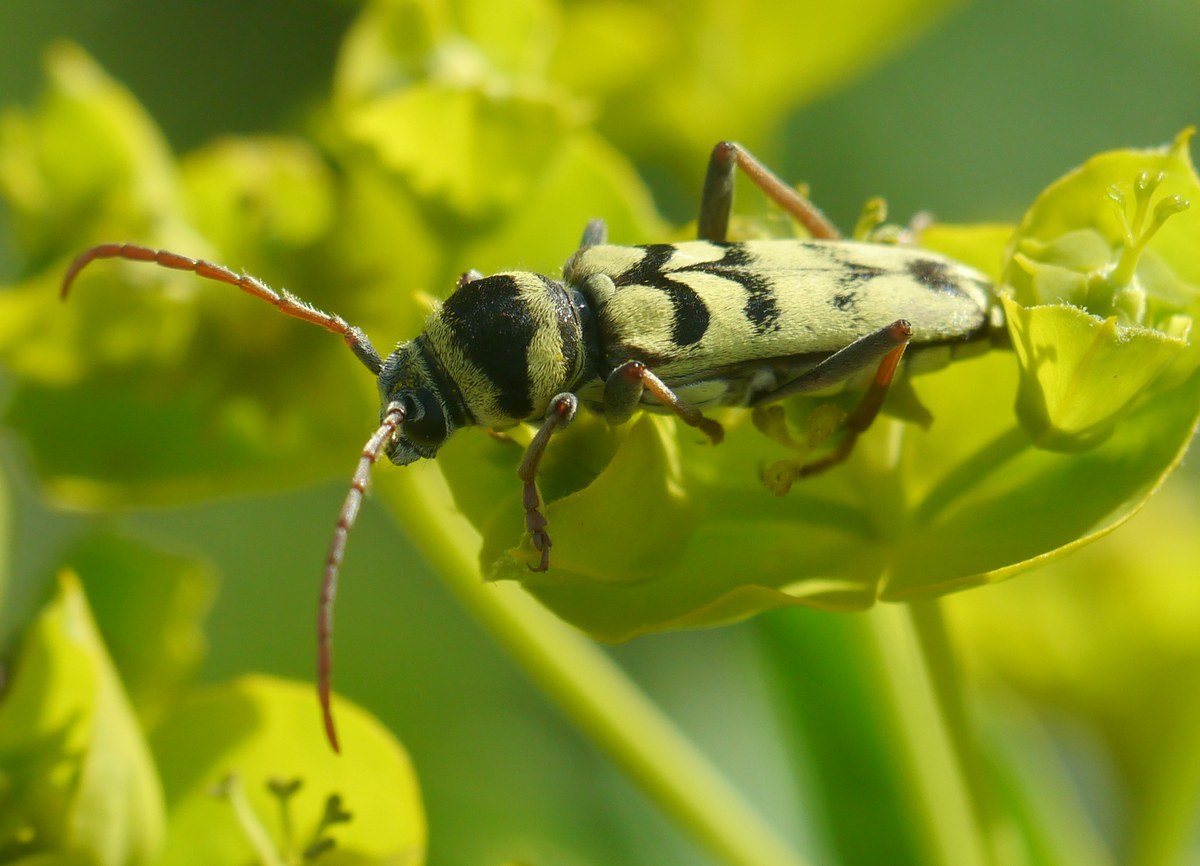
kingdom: Animalia
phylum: Arthropoda
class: Insecta
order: Coleoptera
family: Cerambycidae
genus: Plagionotus
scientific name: Plagionotus floralis
